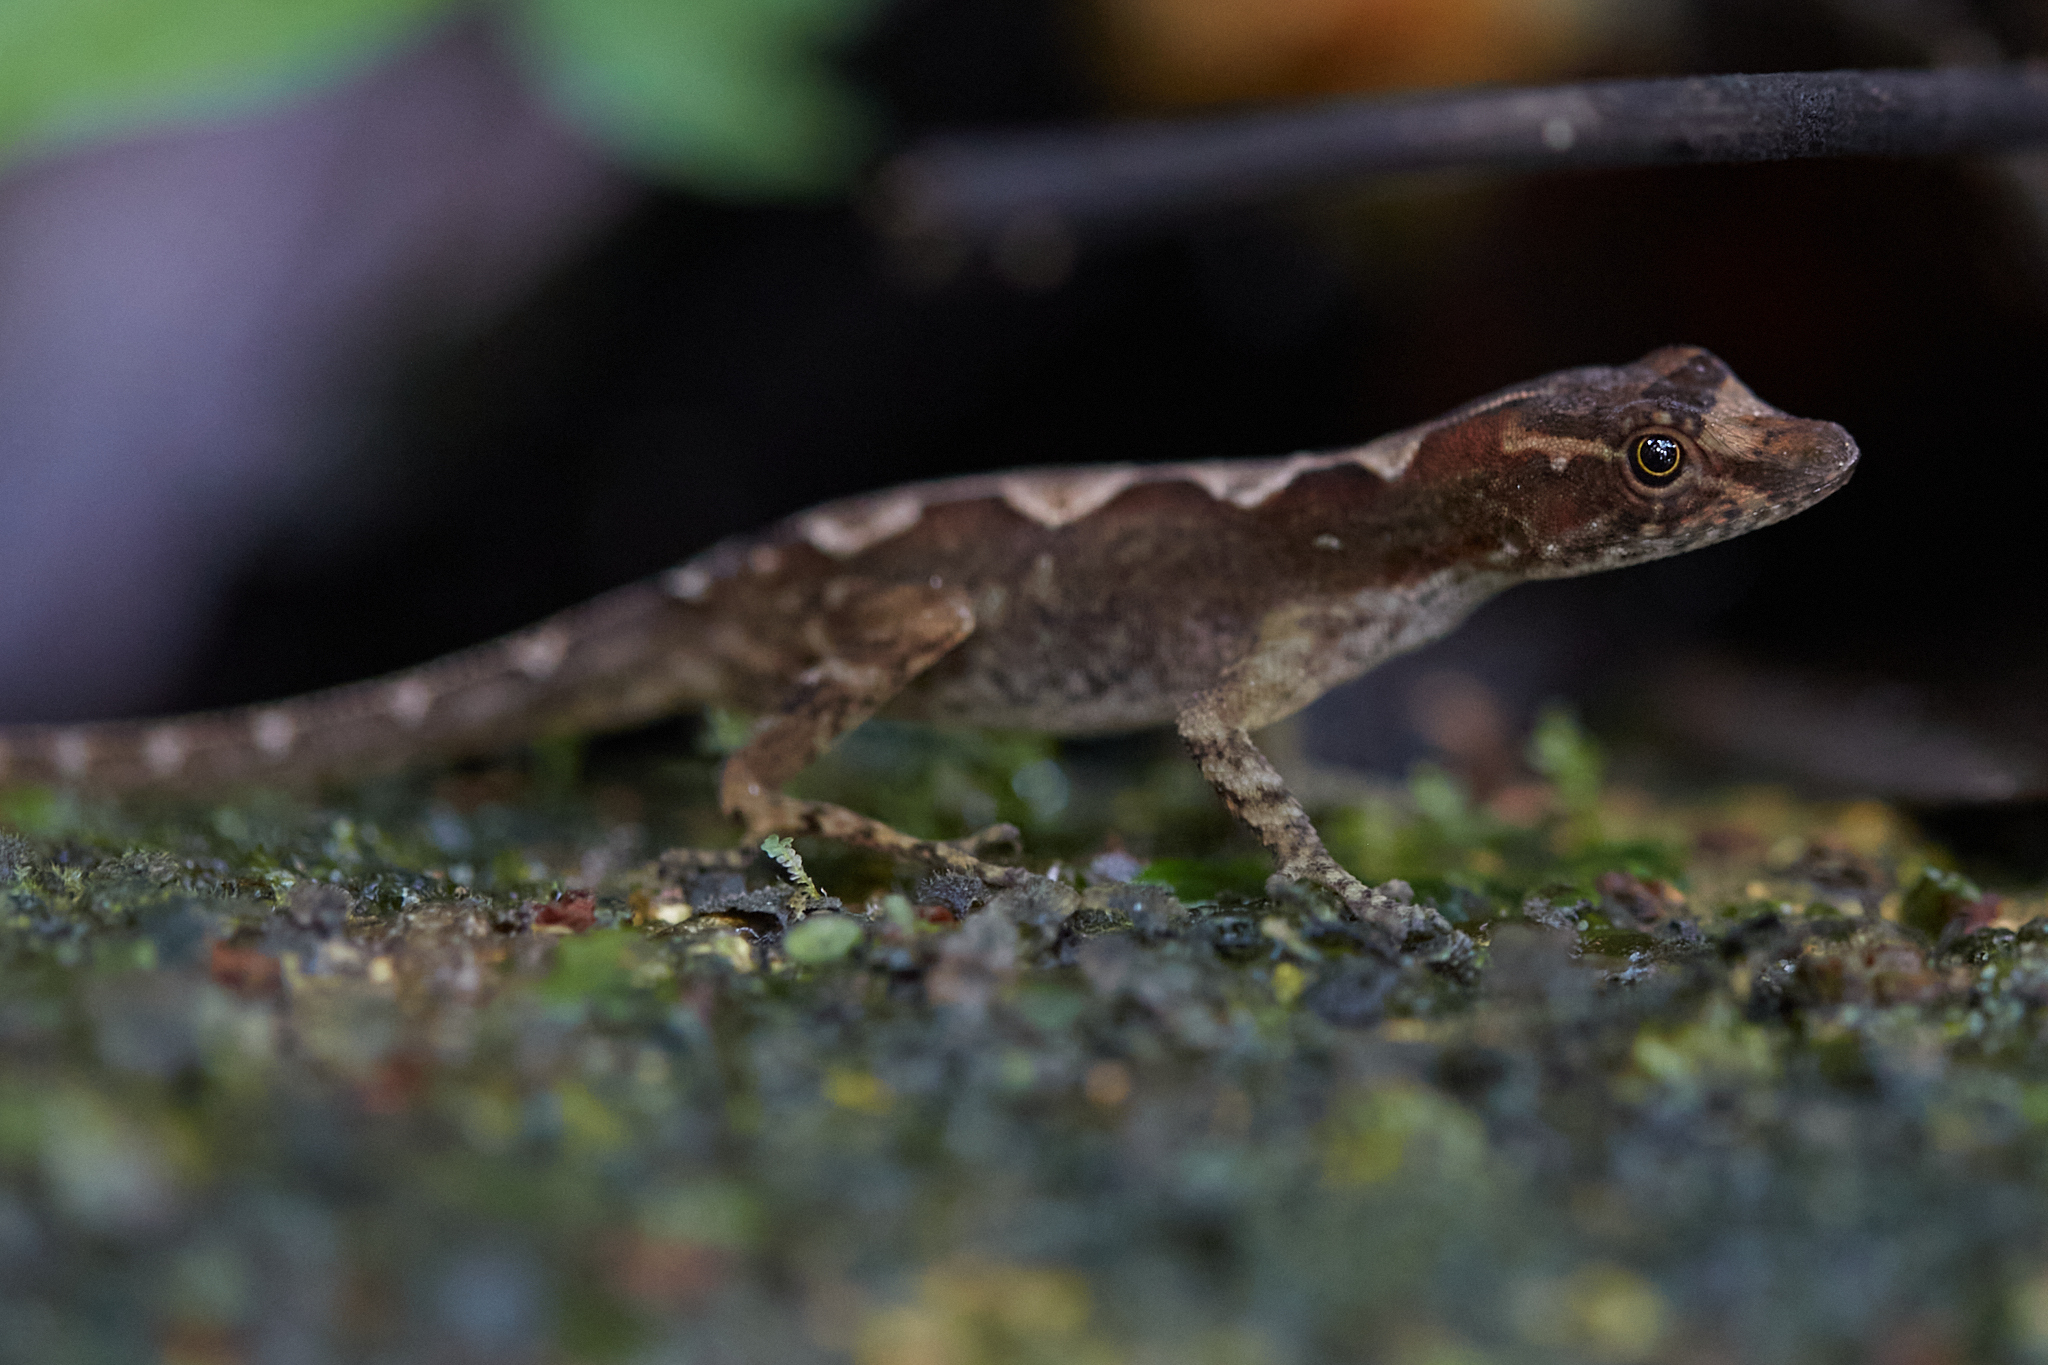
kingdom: Animalia
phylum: Chordata
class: Squamata
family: Dactyloidae
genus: Anolis
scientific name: Anolis humilis
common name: Humble anole
